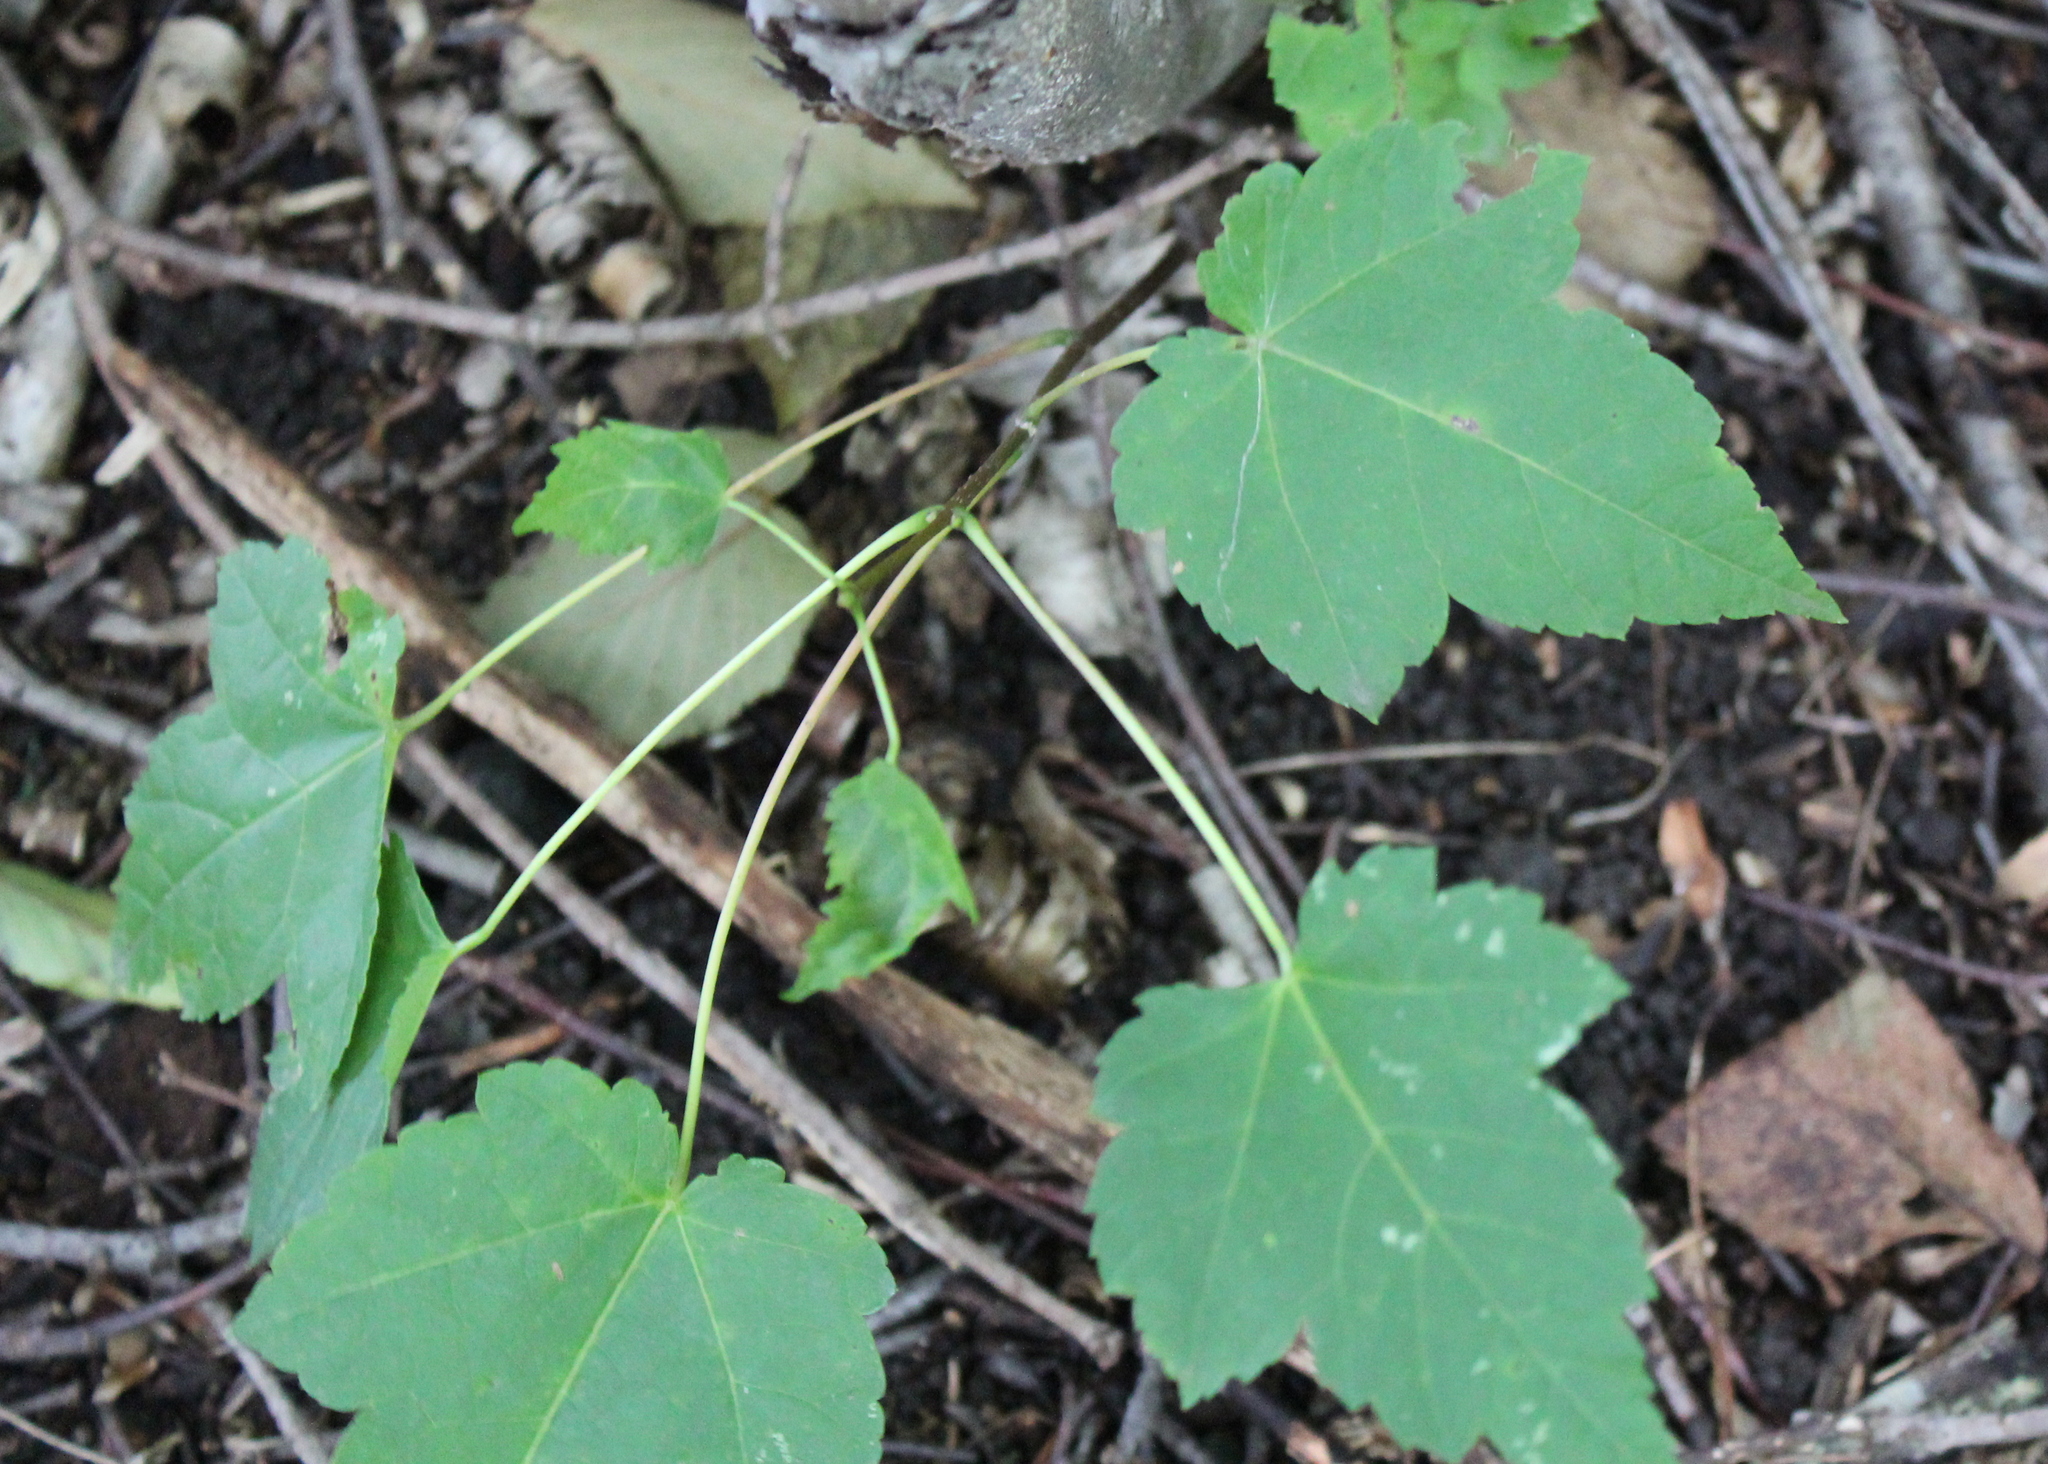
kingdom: Plantae
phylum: Tracheophyta
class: Magnoliopsida
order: Sapindales
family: Sapindaceae
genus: Acer
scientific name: Acer rubrum
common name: Red maple
